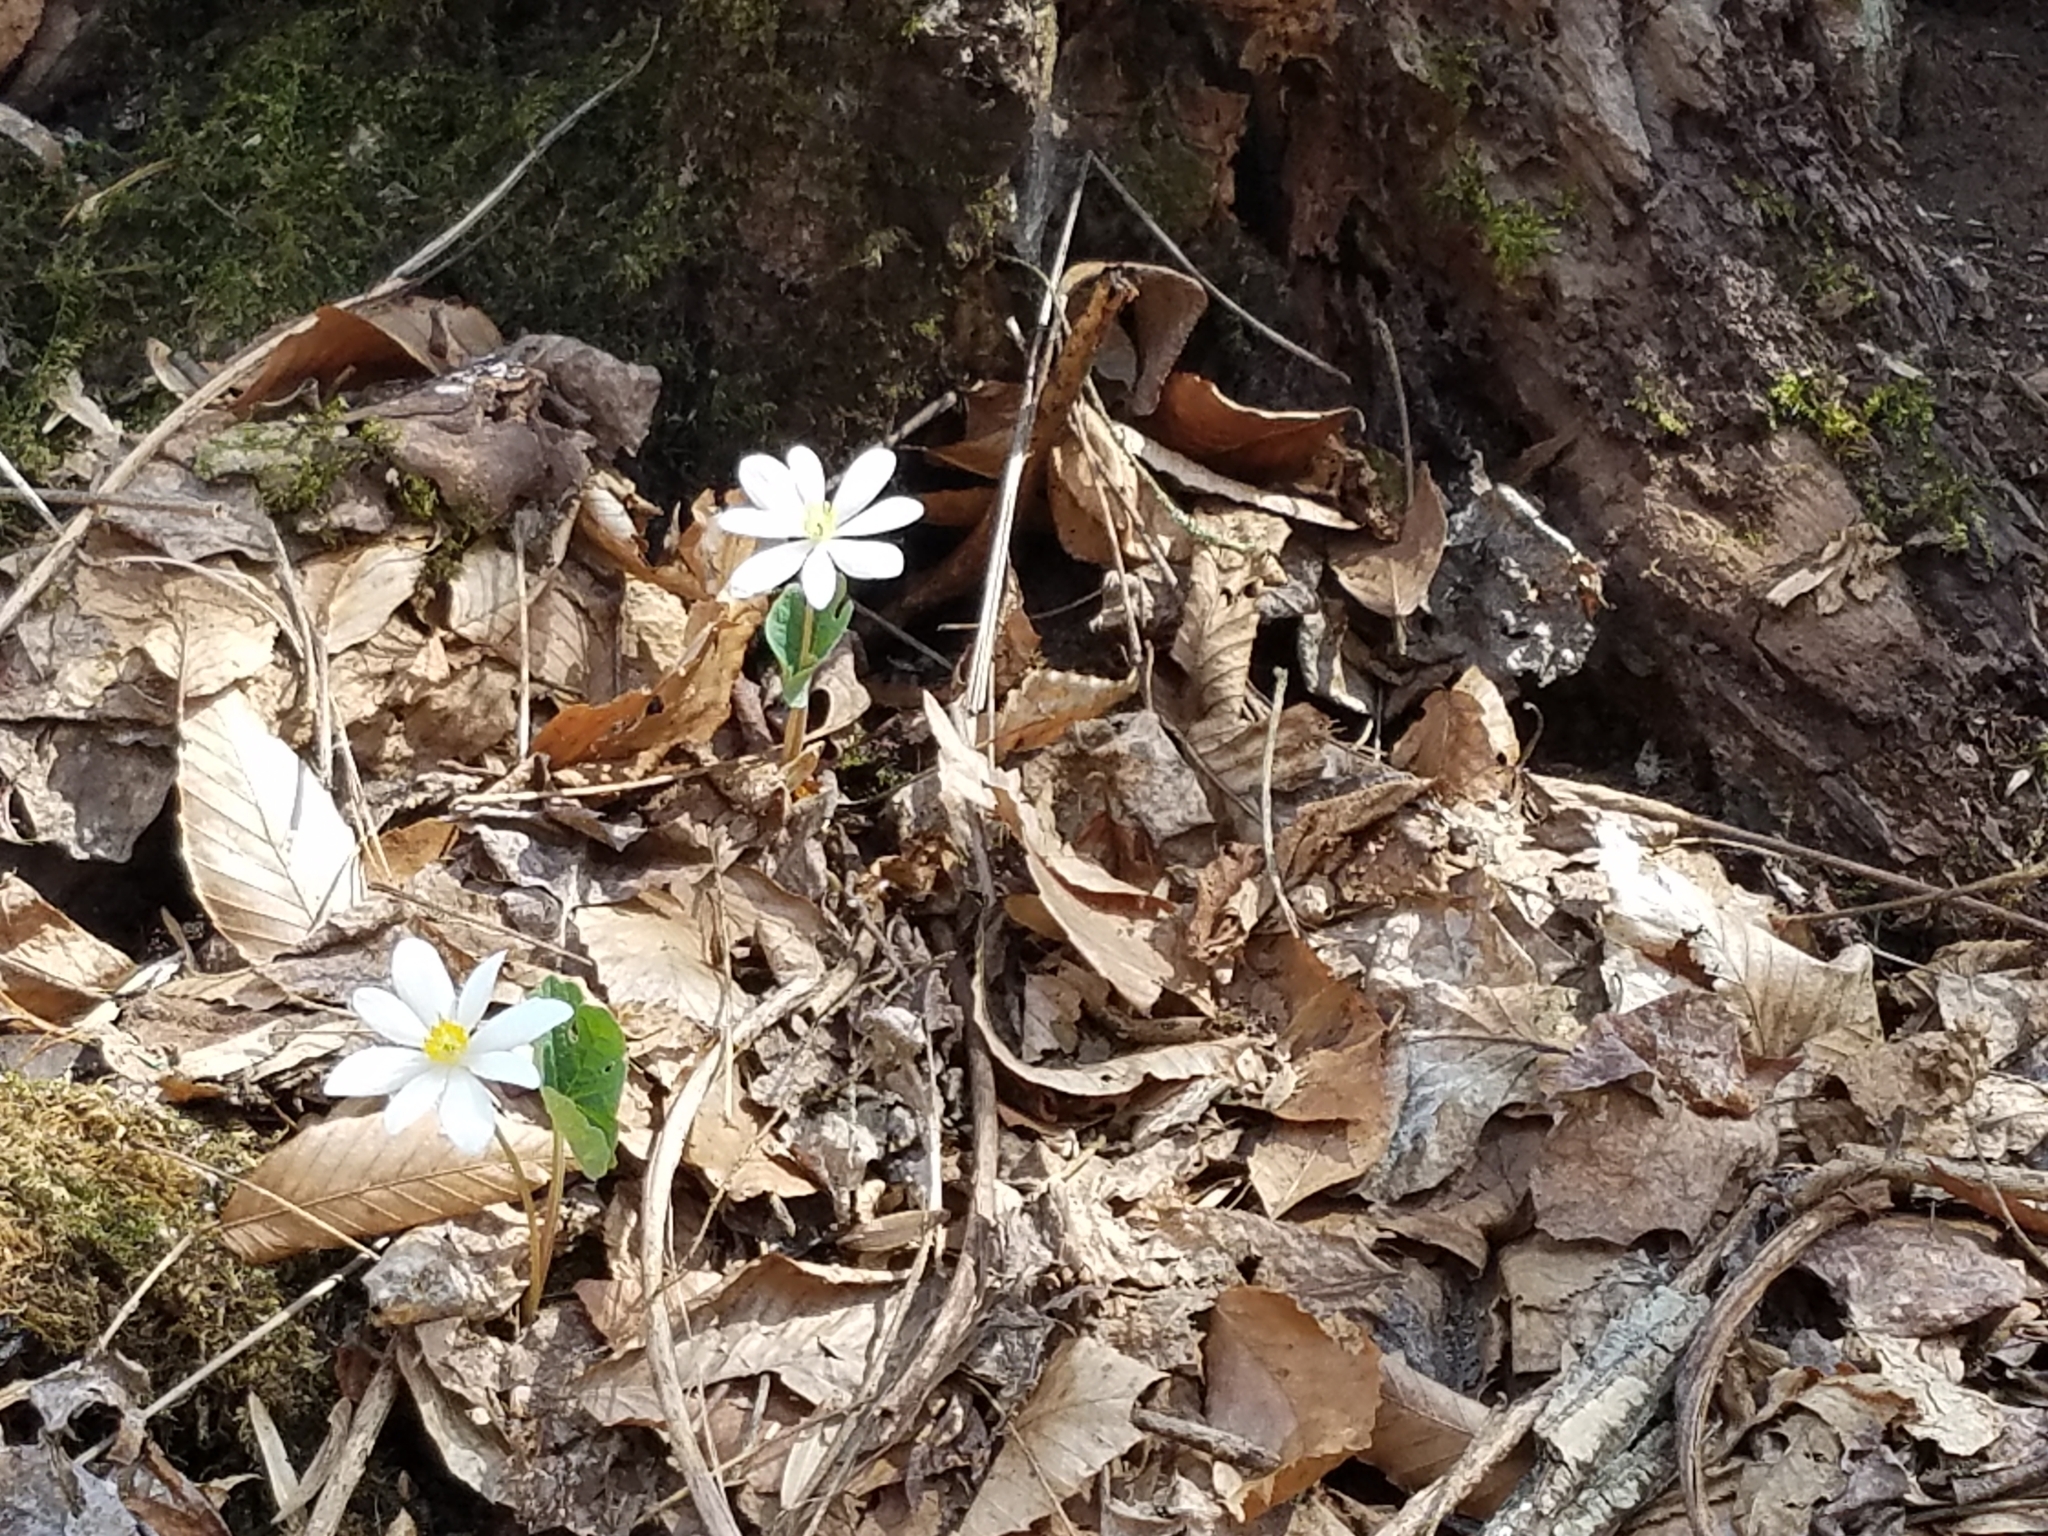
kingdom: Plantae
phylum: Tracheophyta
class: Magnoliopsida
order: Ranunculales
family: Papaveraceae
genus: Sanguinaria
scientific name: Sanguinaria canadensis
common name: Bloodroot
